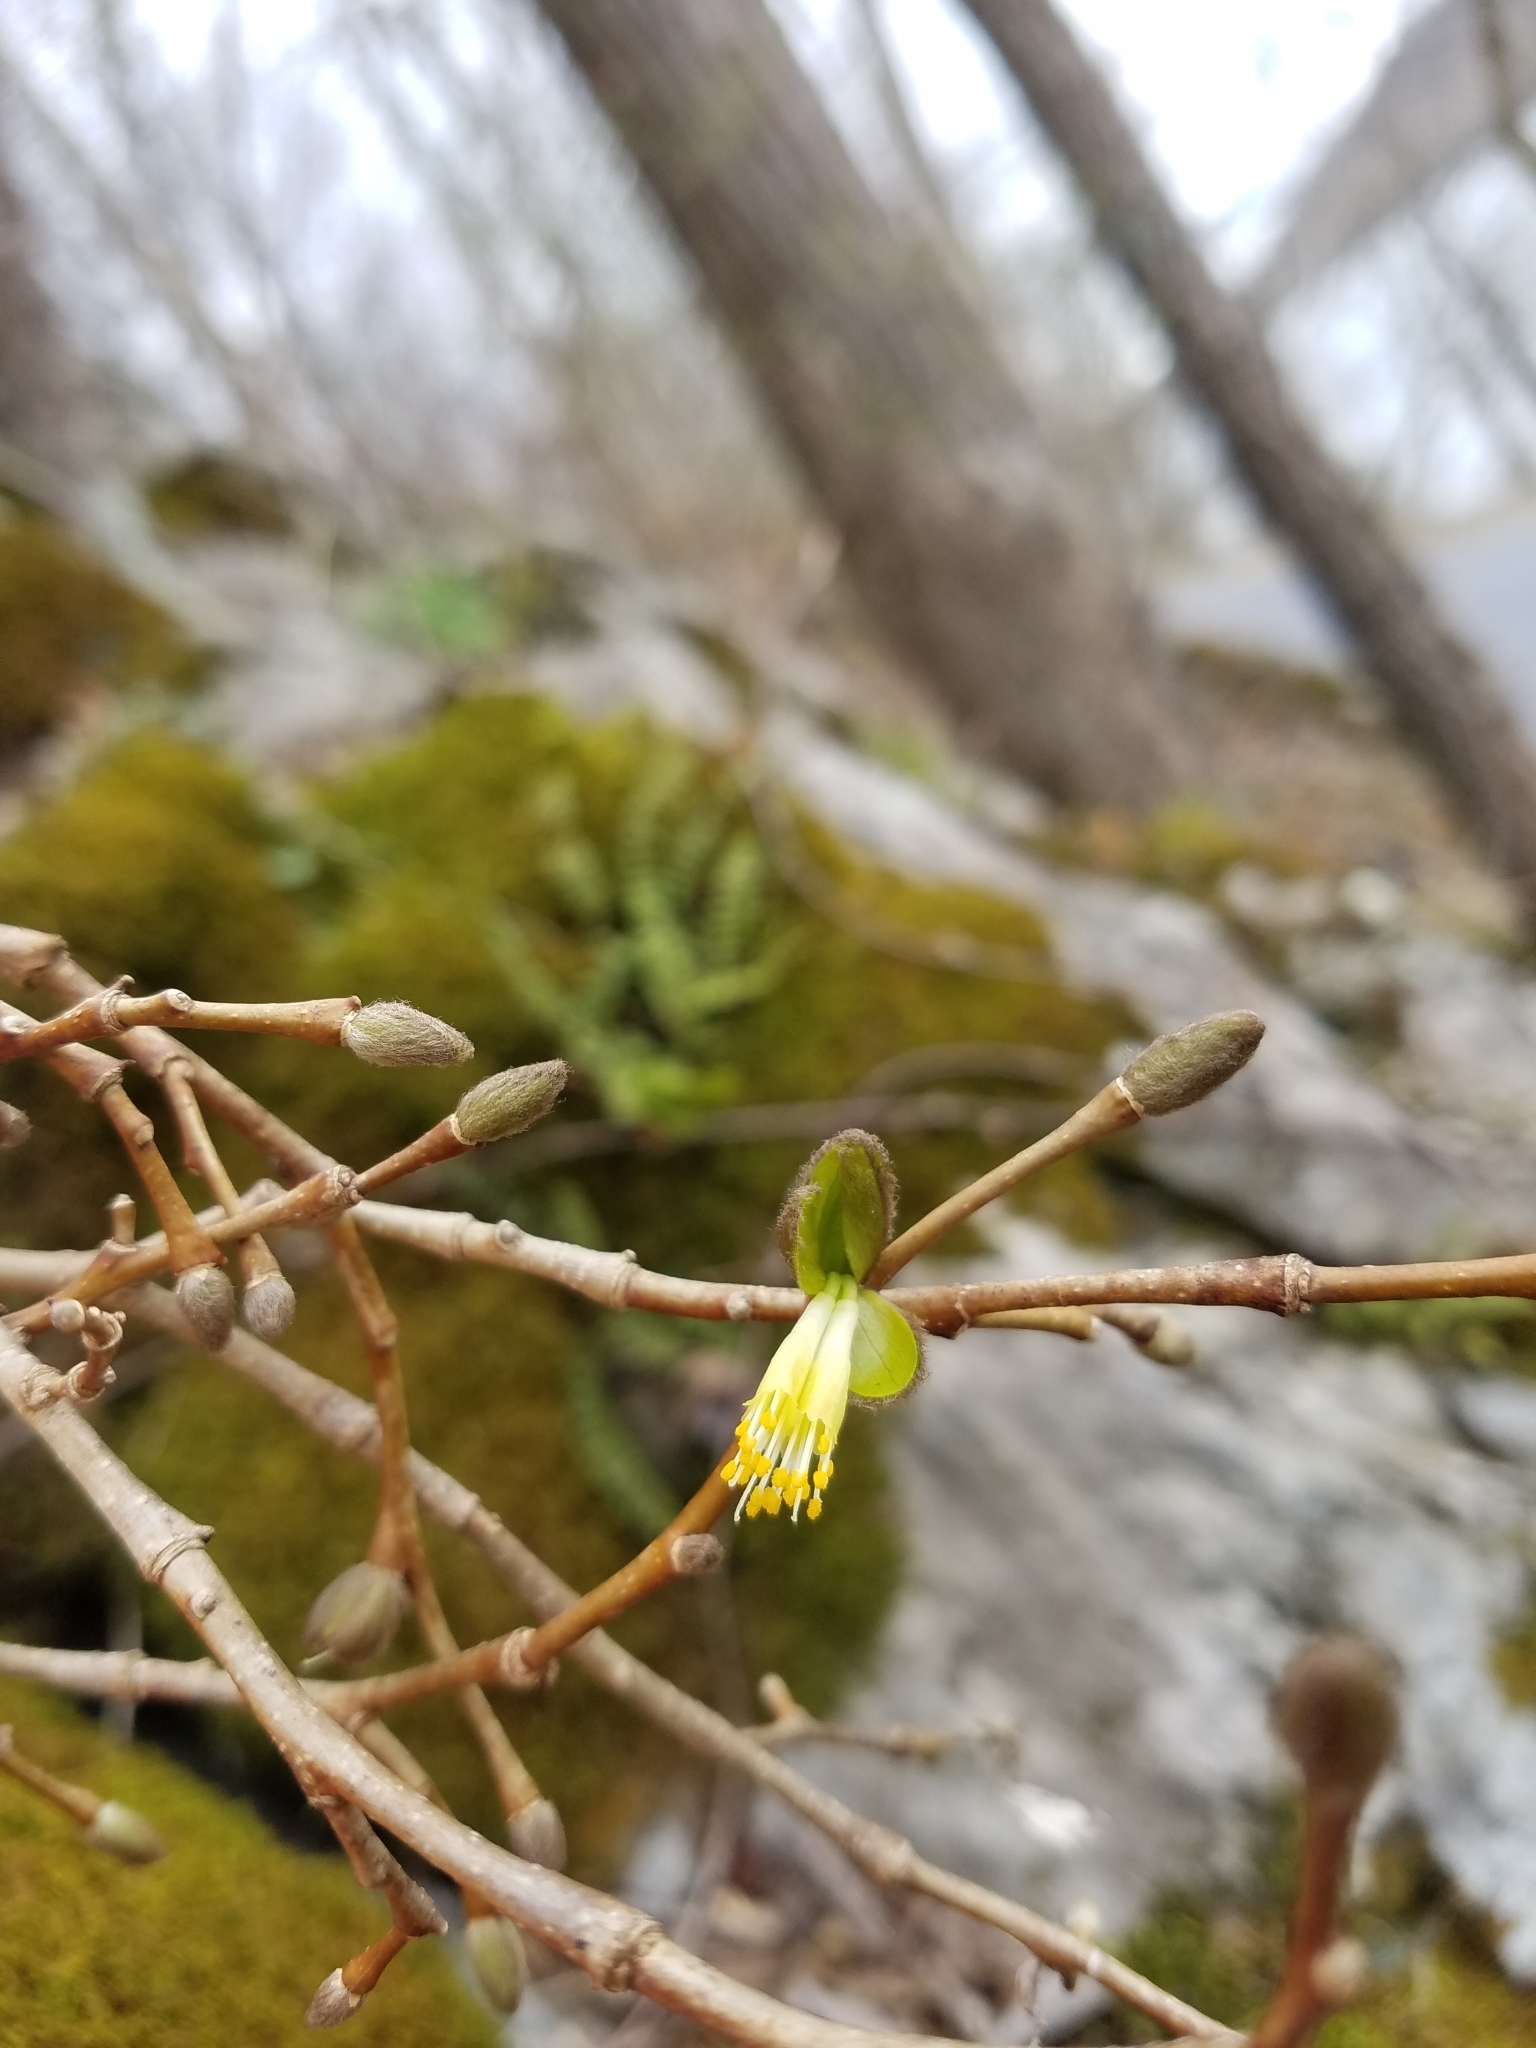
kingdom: Plantae
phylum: Tracheophyta
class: Magnoliopsida
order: Malvales
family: Thymelaeaceae
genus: Dirca
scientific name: Dirca palustris
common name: Leatherwood
